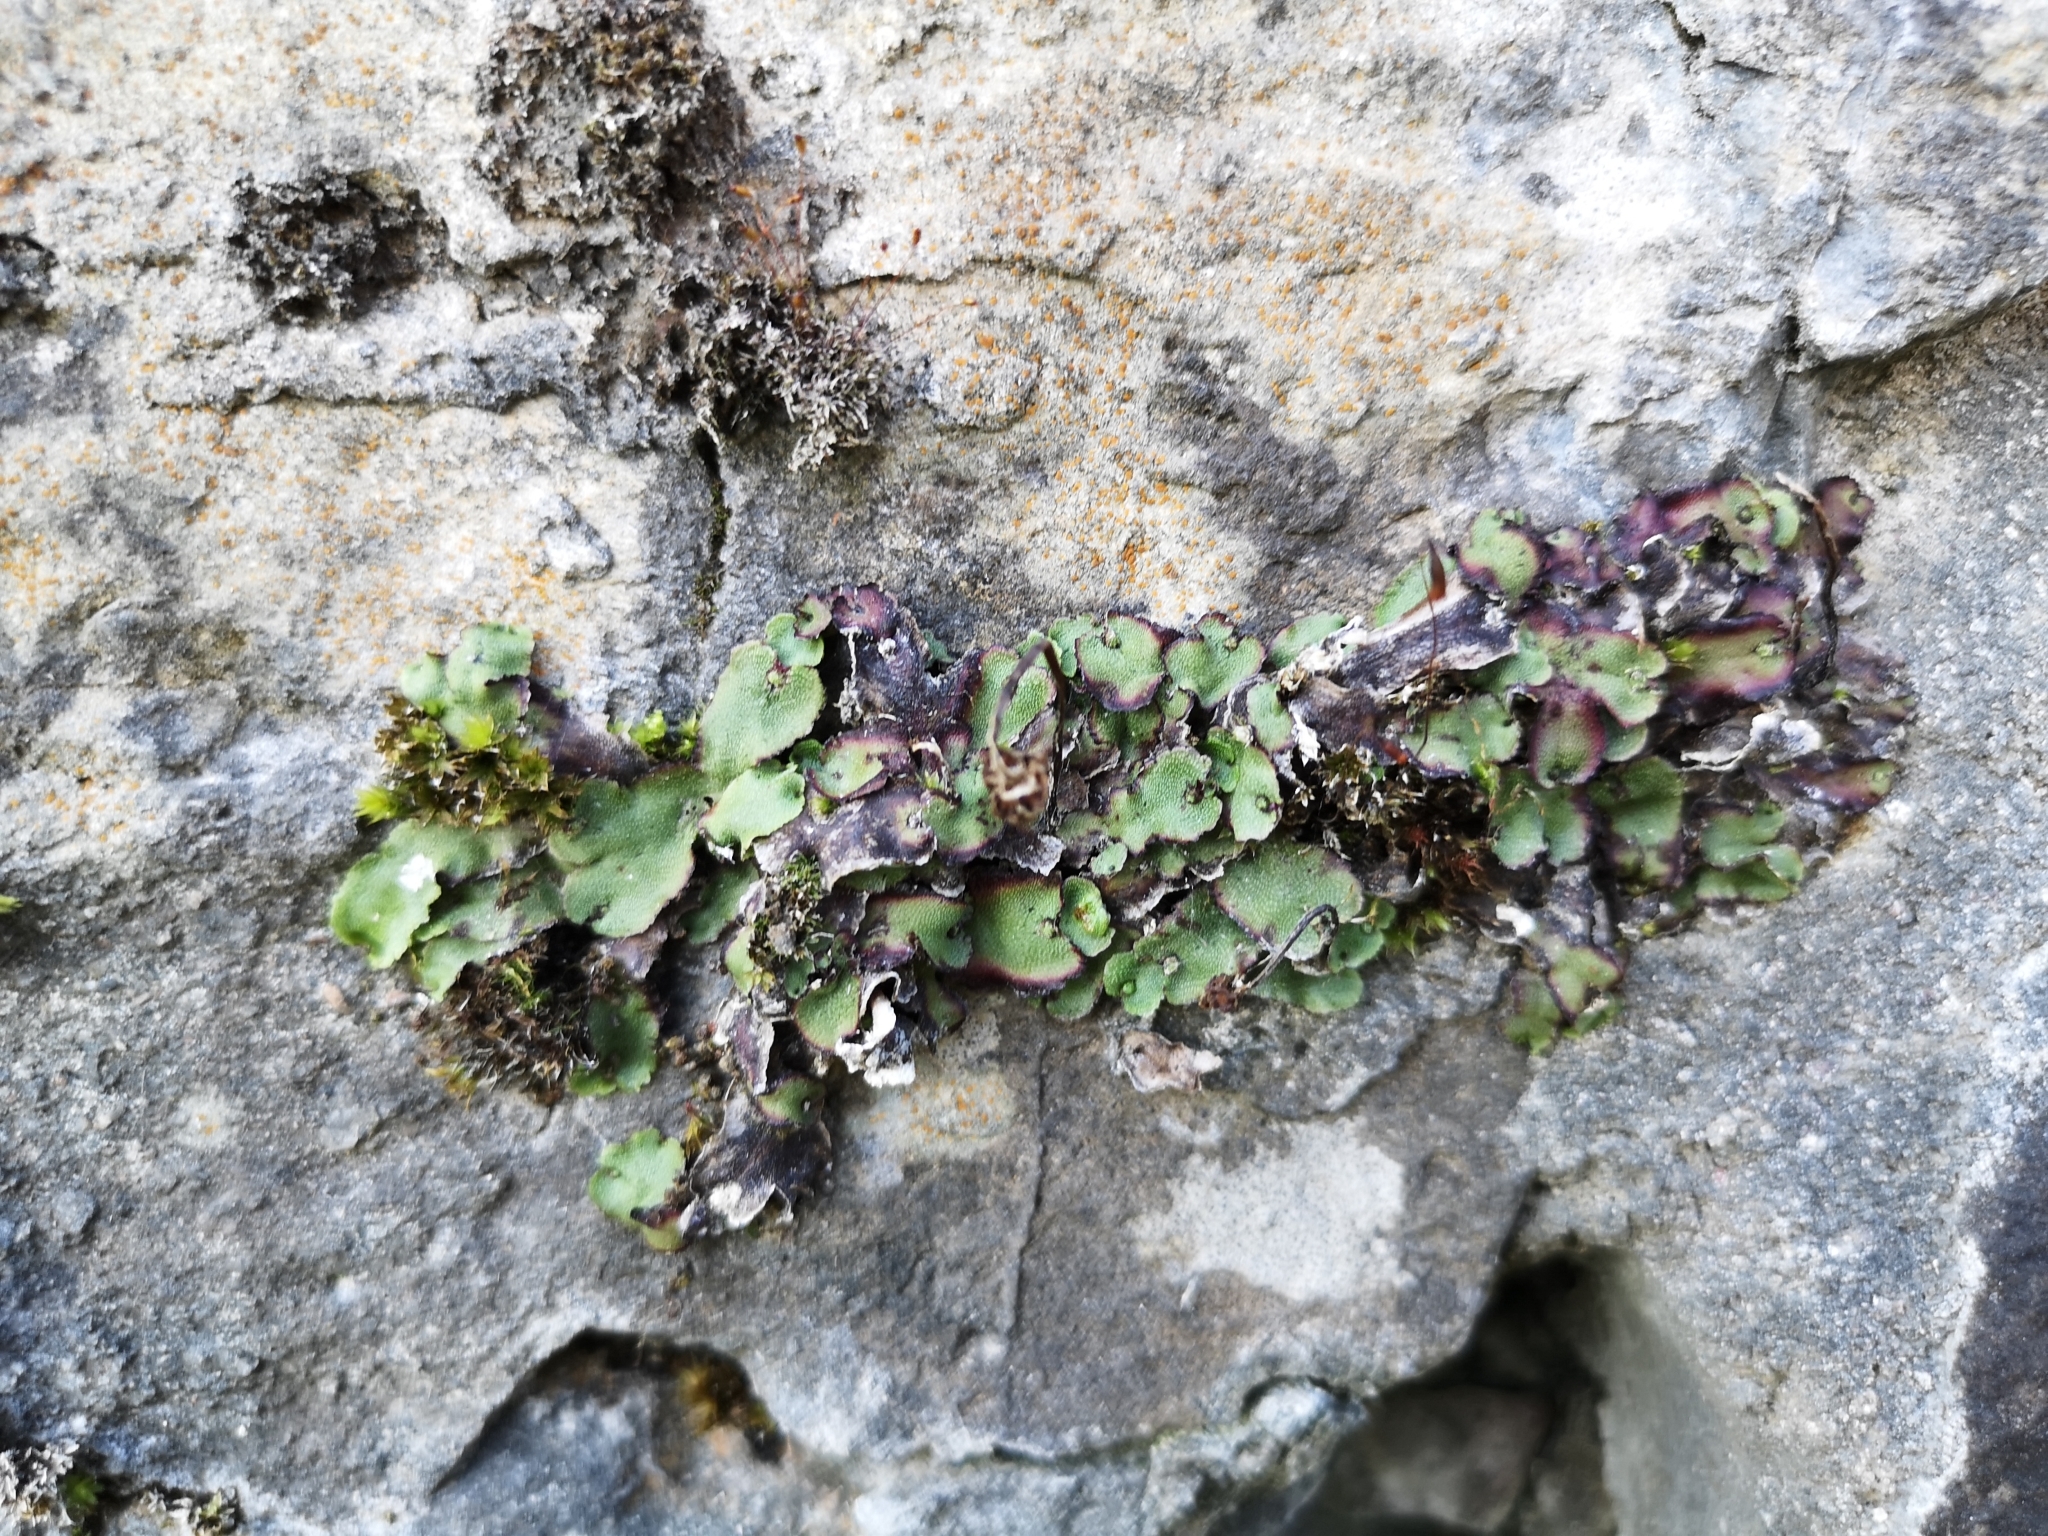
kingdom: Plantae
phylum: Marchantiophyta
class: Marchantiopsida
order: Marchantiales
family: Marchantiaceae
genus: Marchantia
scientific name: Marchantia quadrata
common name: Narrow mushroom-headed liverwort
